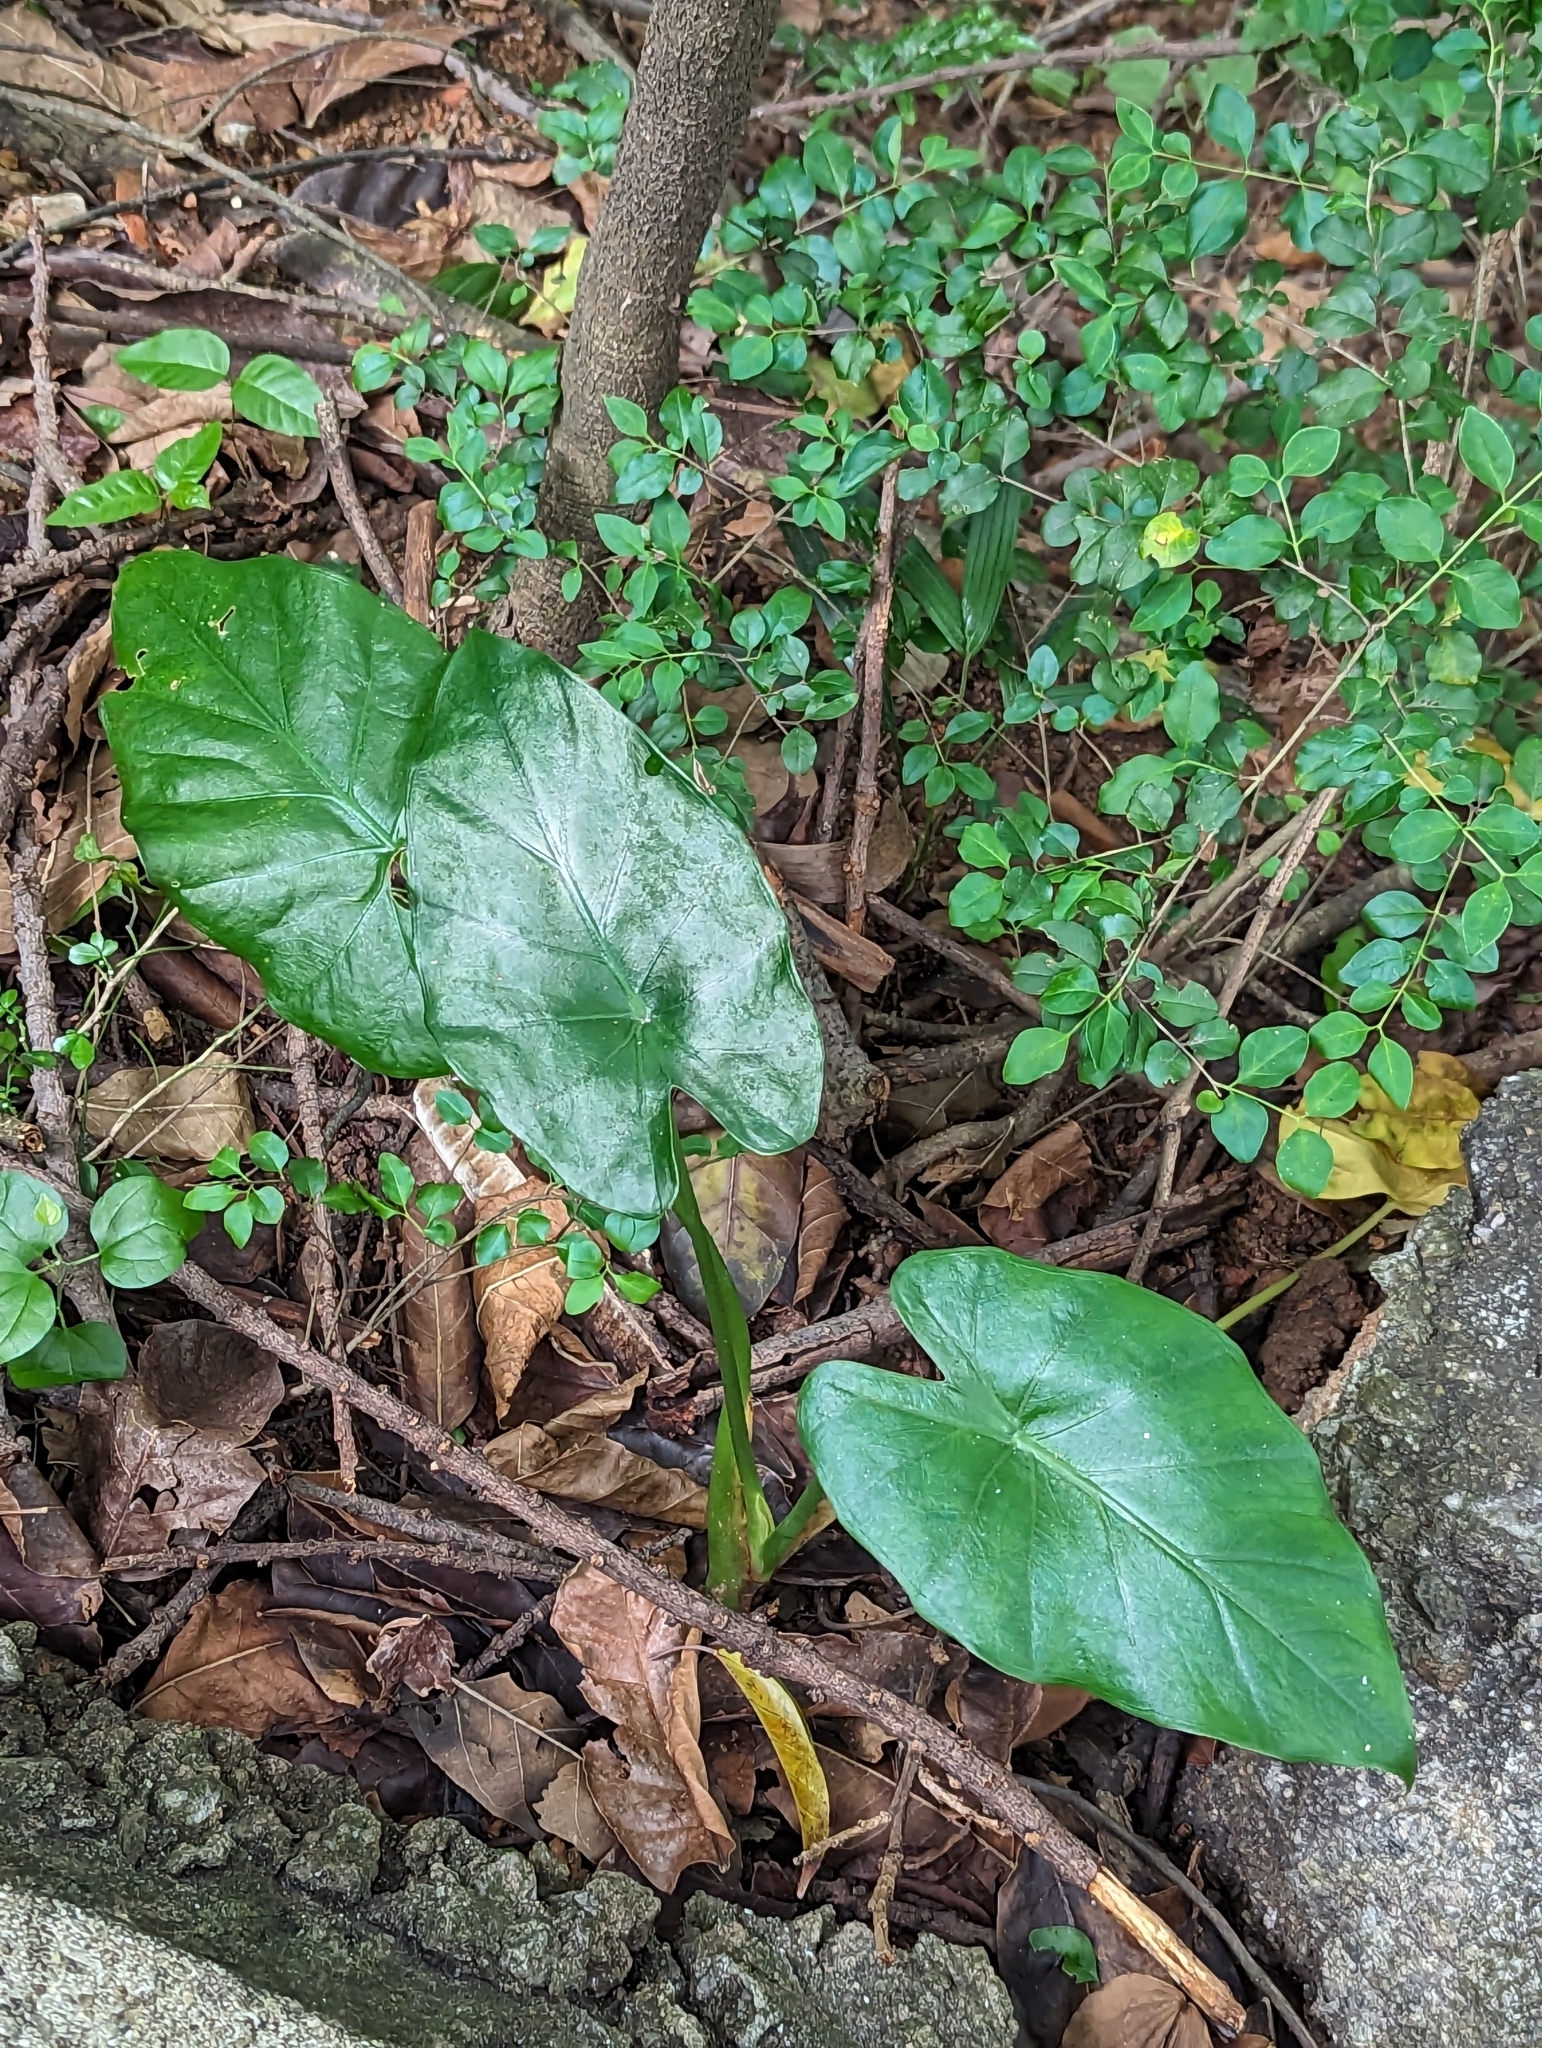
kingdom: Plantae
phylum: Tracheophyta
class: Liliopsida
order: Alismatales
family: Araceae
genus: Alocasia
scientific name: Alocasia odora
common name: Asian taro
